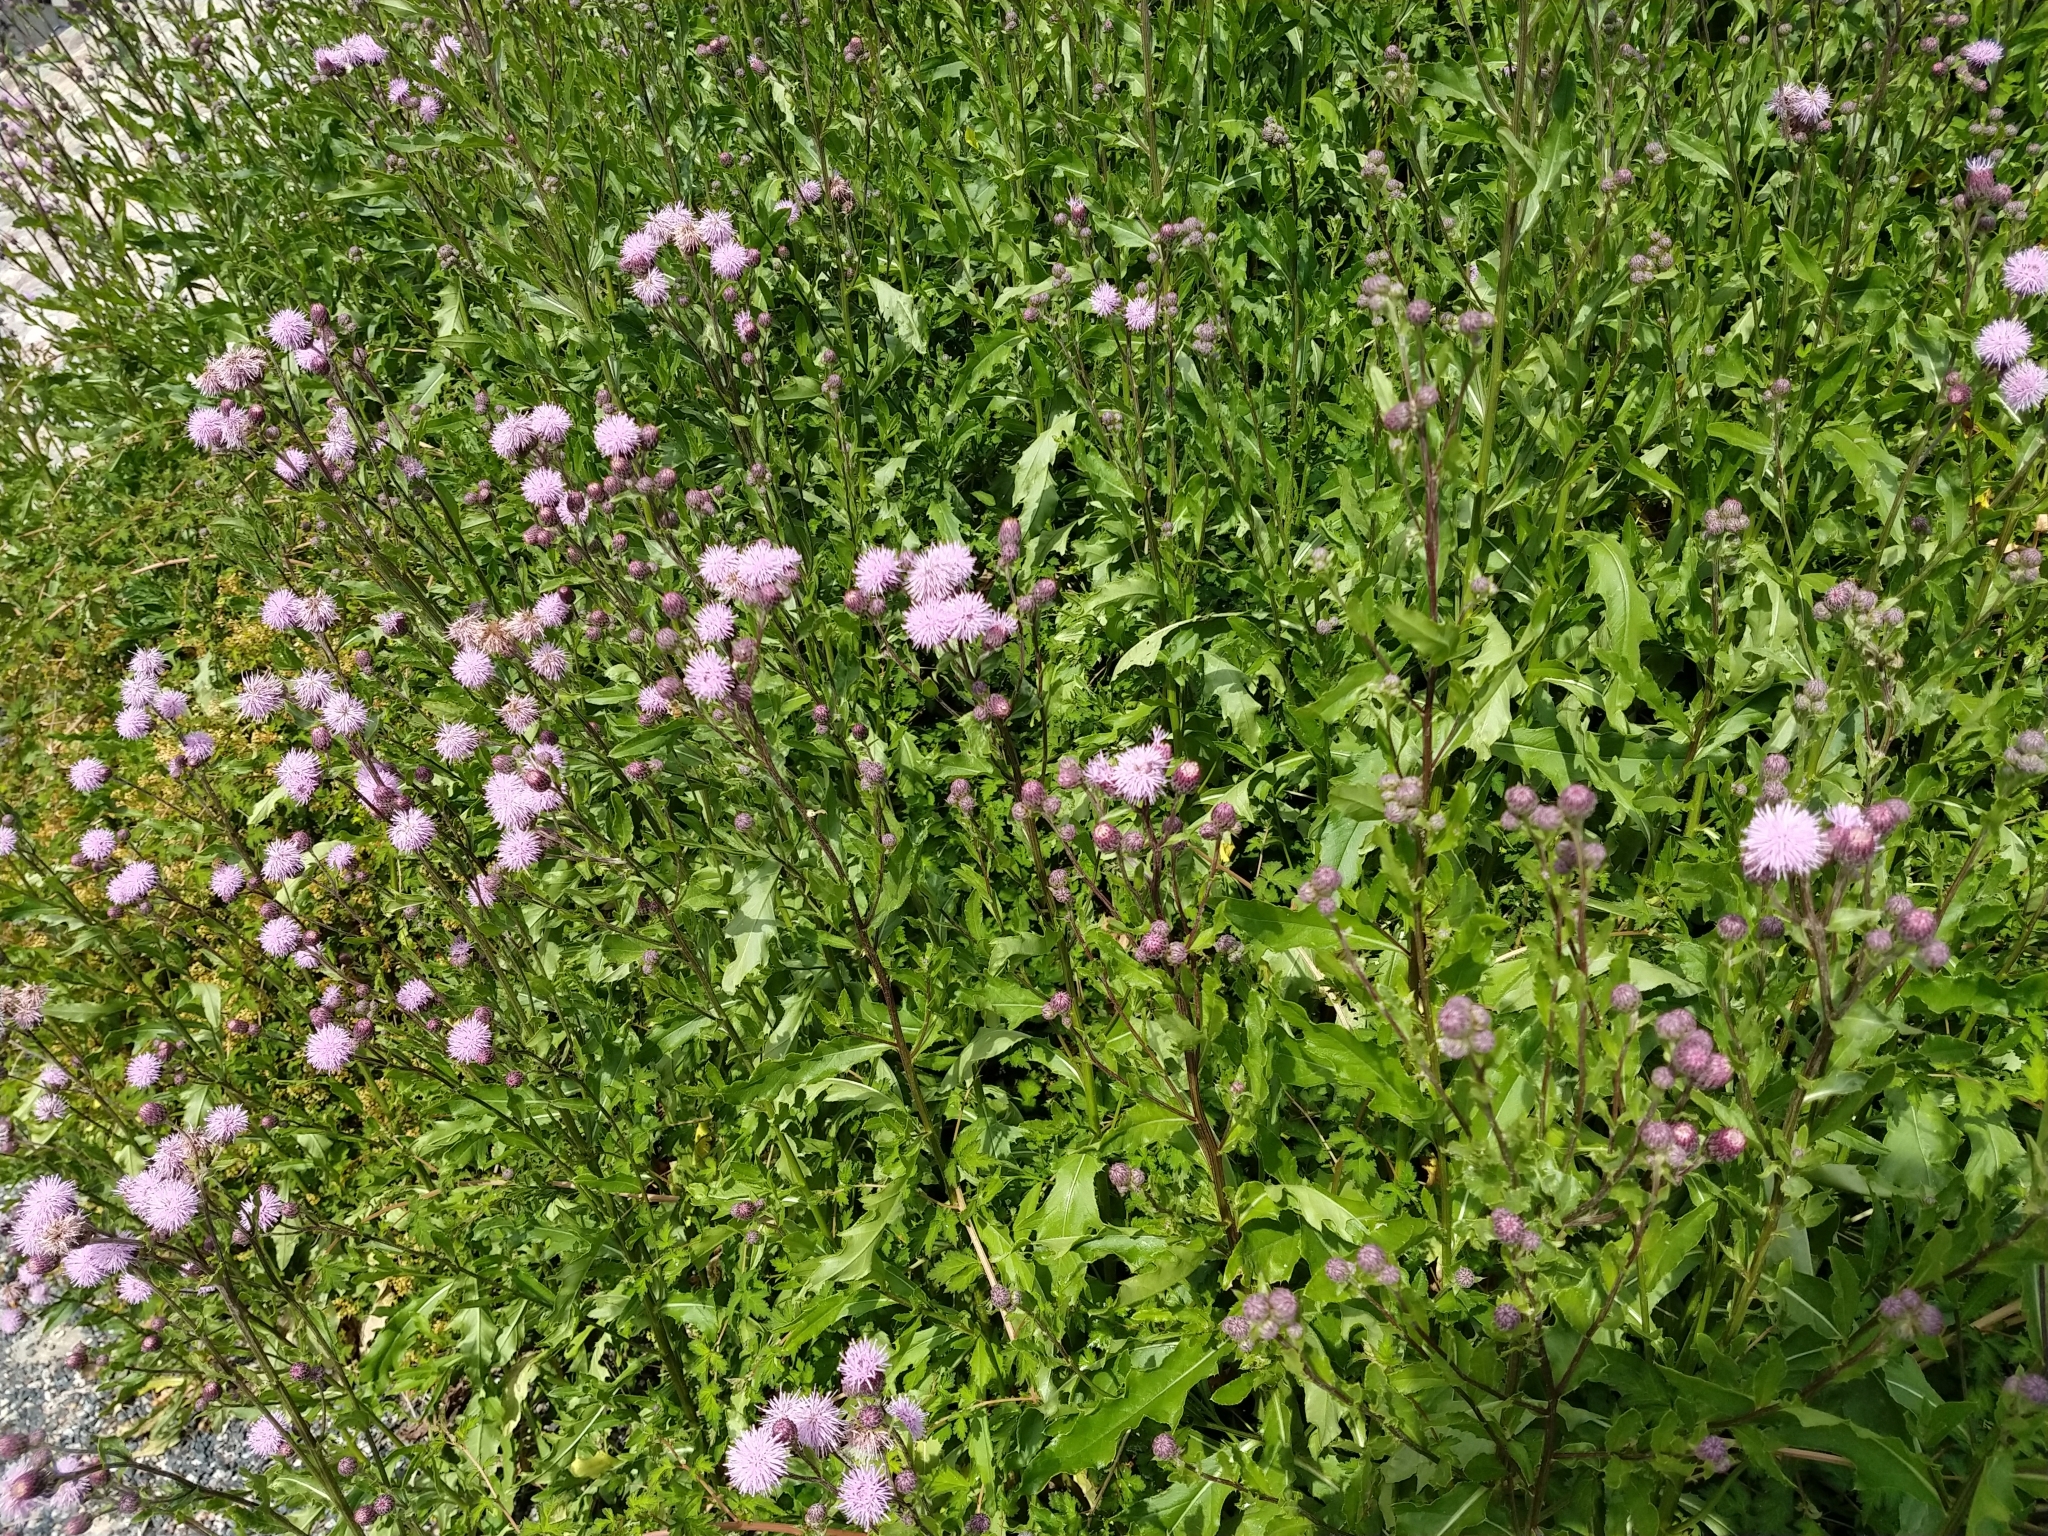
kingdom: Plantae
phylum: Tracheophyta
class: Magnoliopsida
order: Asterales
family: Asteraceae
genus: Cirsium
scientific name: Cirsium arvense
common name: Creeping thistle
